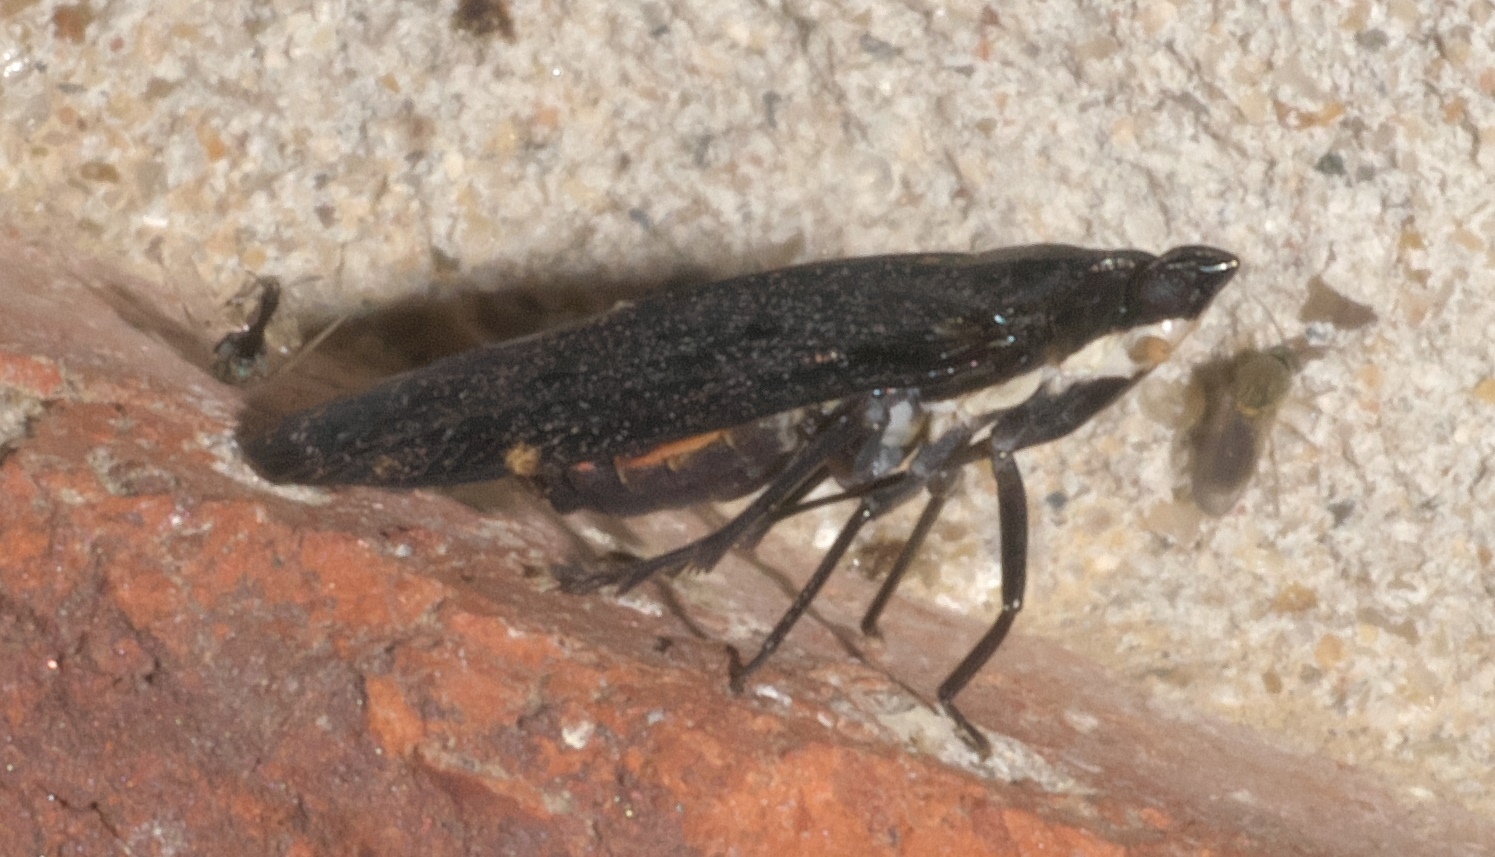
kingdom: Animalia
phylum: Arthropoda
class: Insecta
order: Hemiptera
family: Achilidae
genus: Cixidia
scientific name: Cixidia opaca
